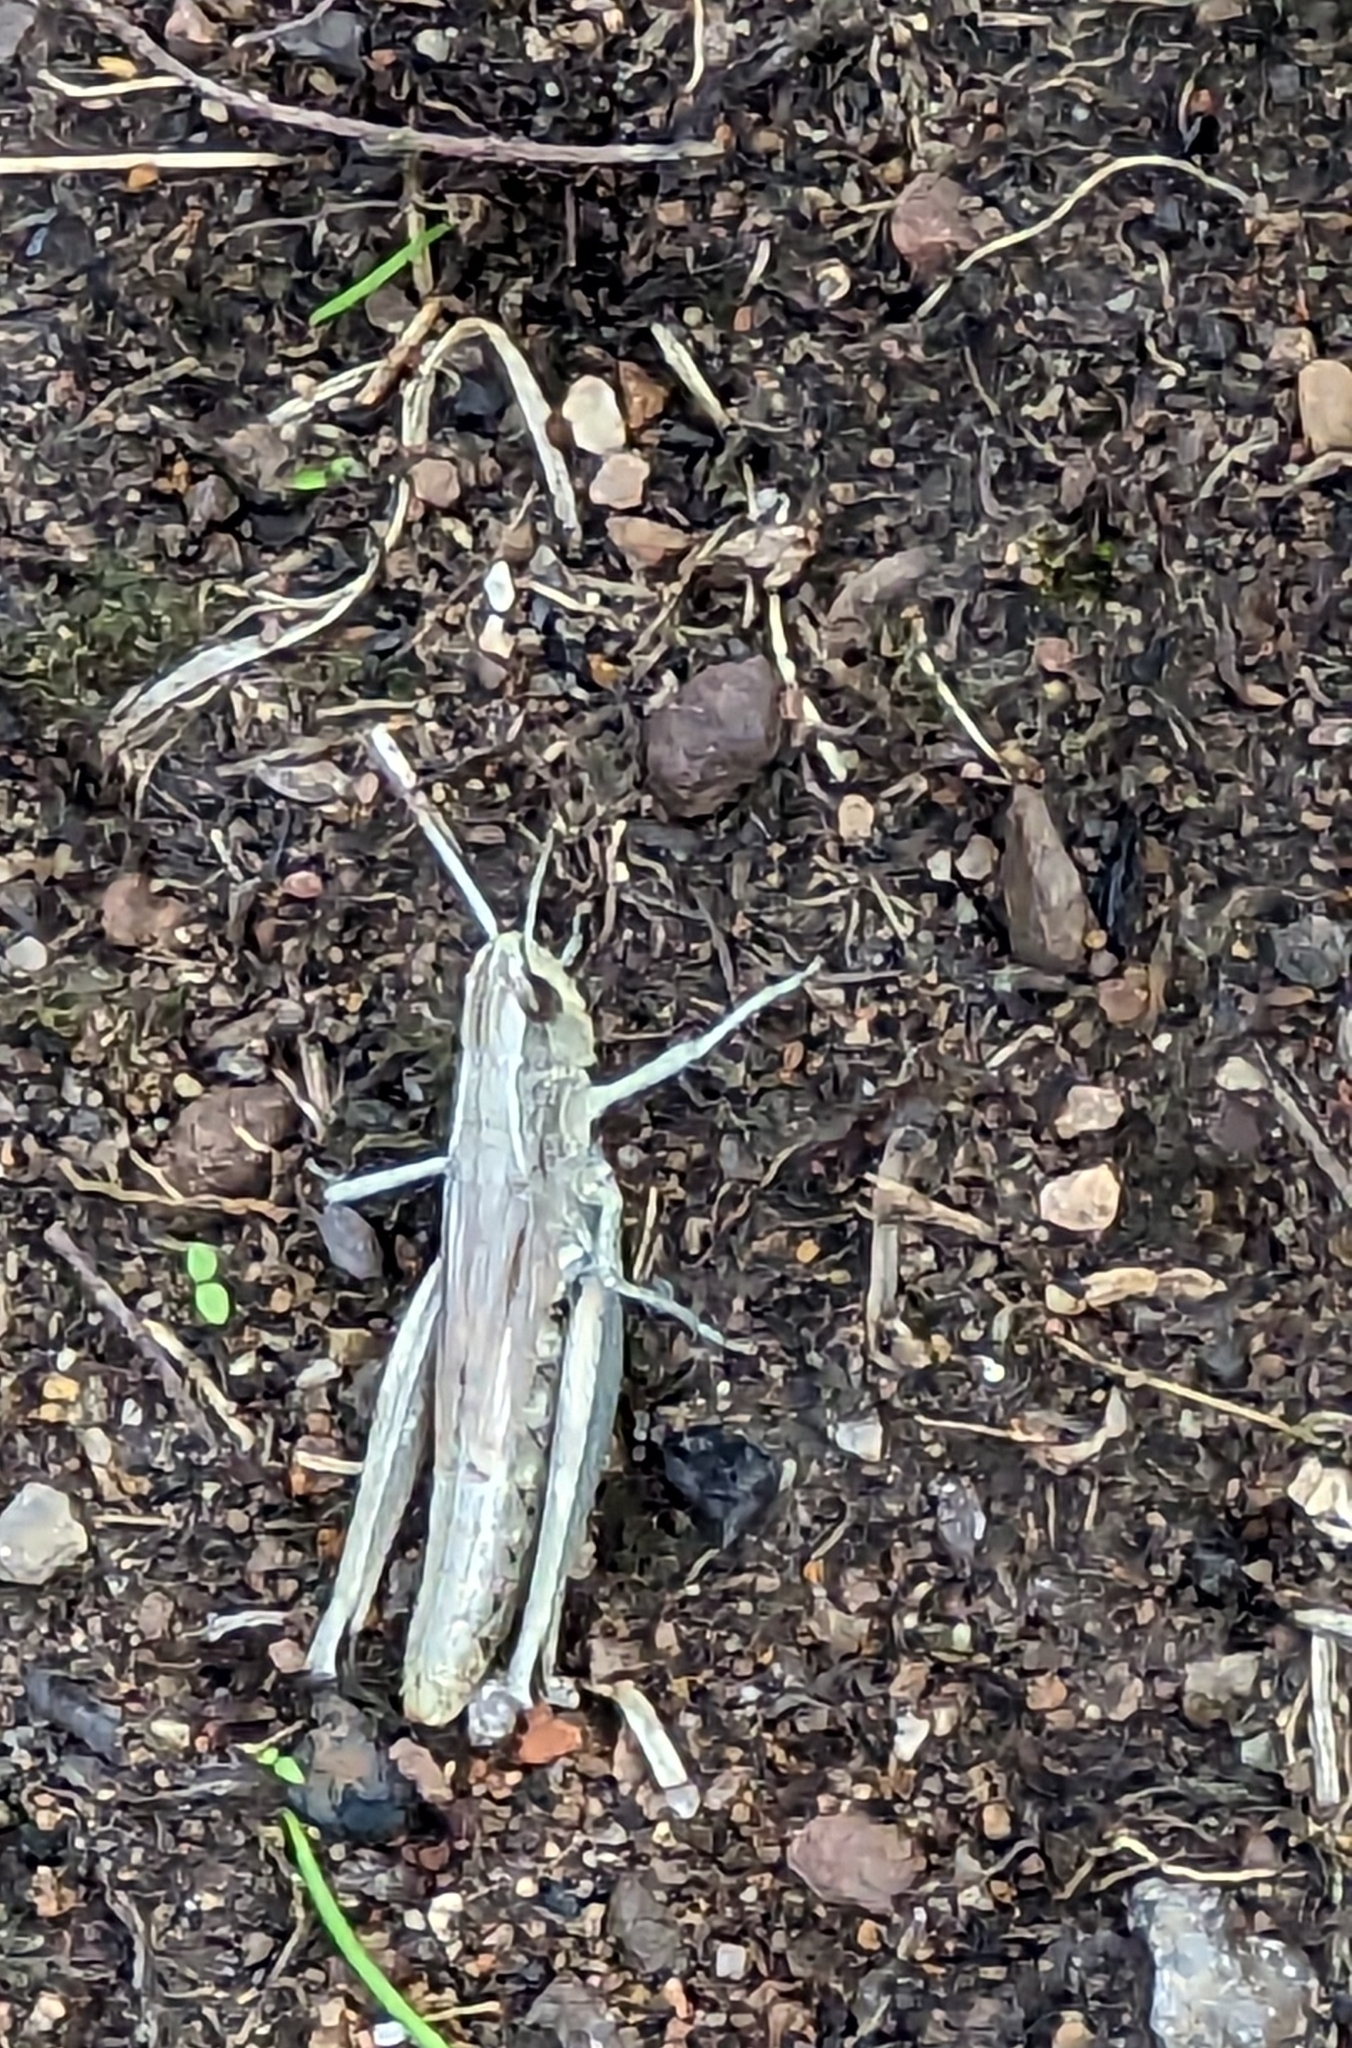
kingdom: Animalia
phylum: Arthropoda
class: Insecta
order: Orthoptera
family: Acrididae
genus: Pseudochorthippus
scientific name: Pseudochorthippus parallelus
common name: Meadow grasshopper
